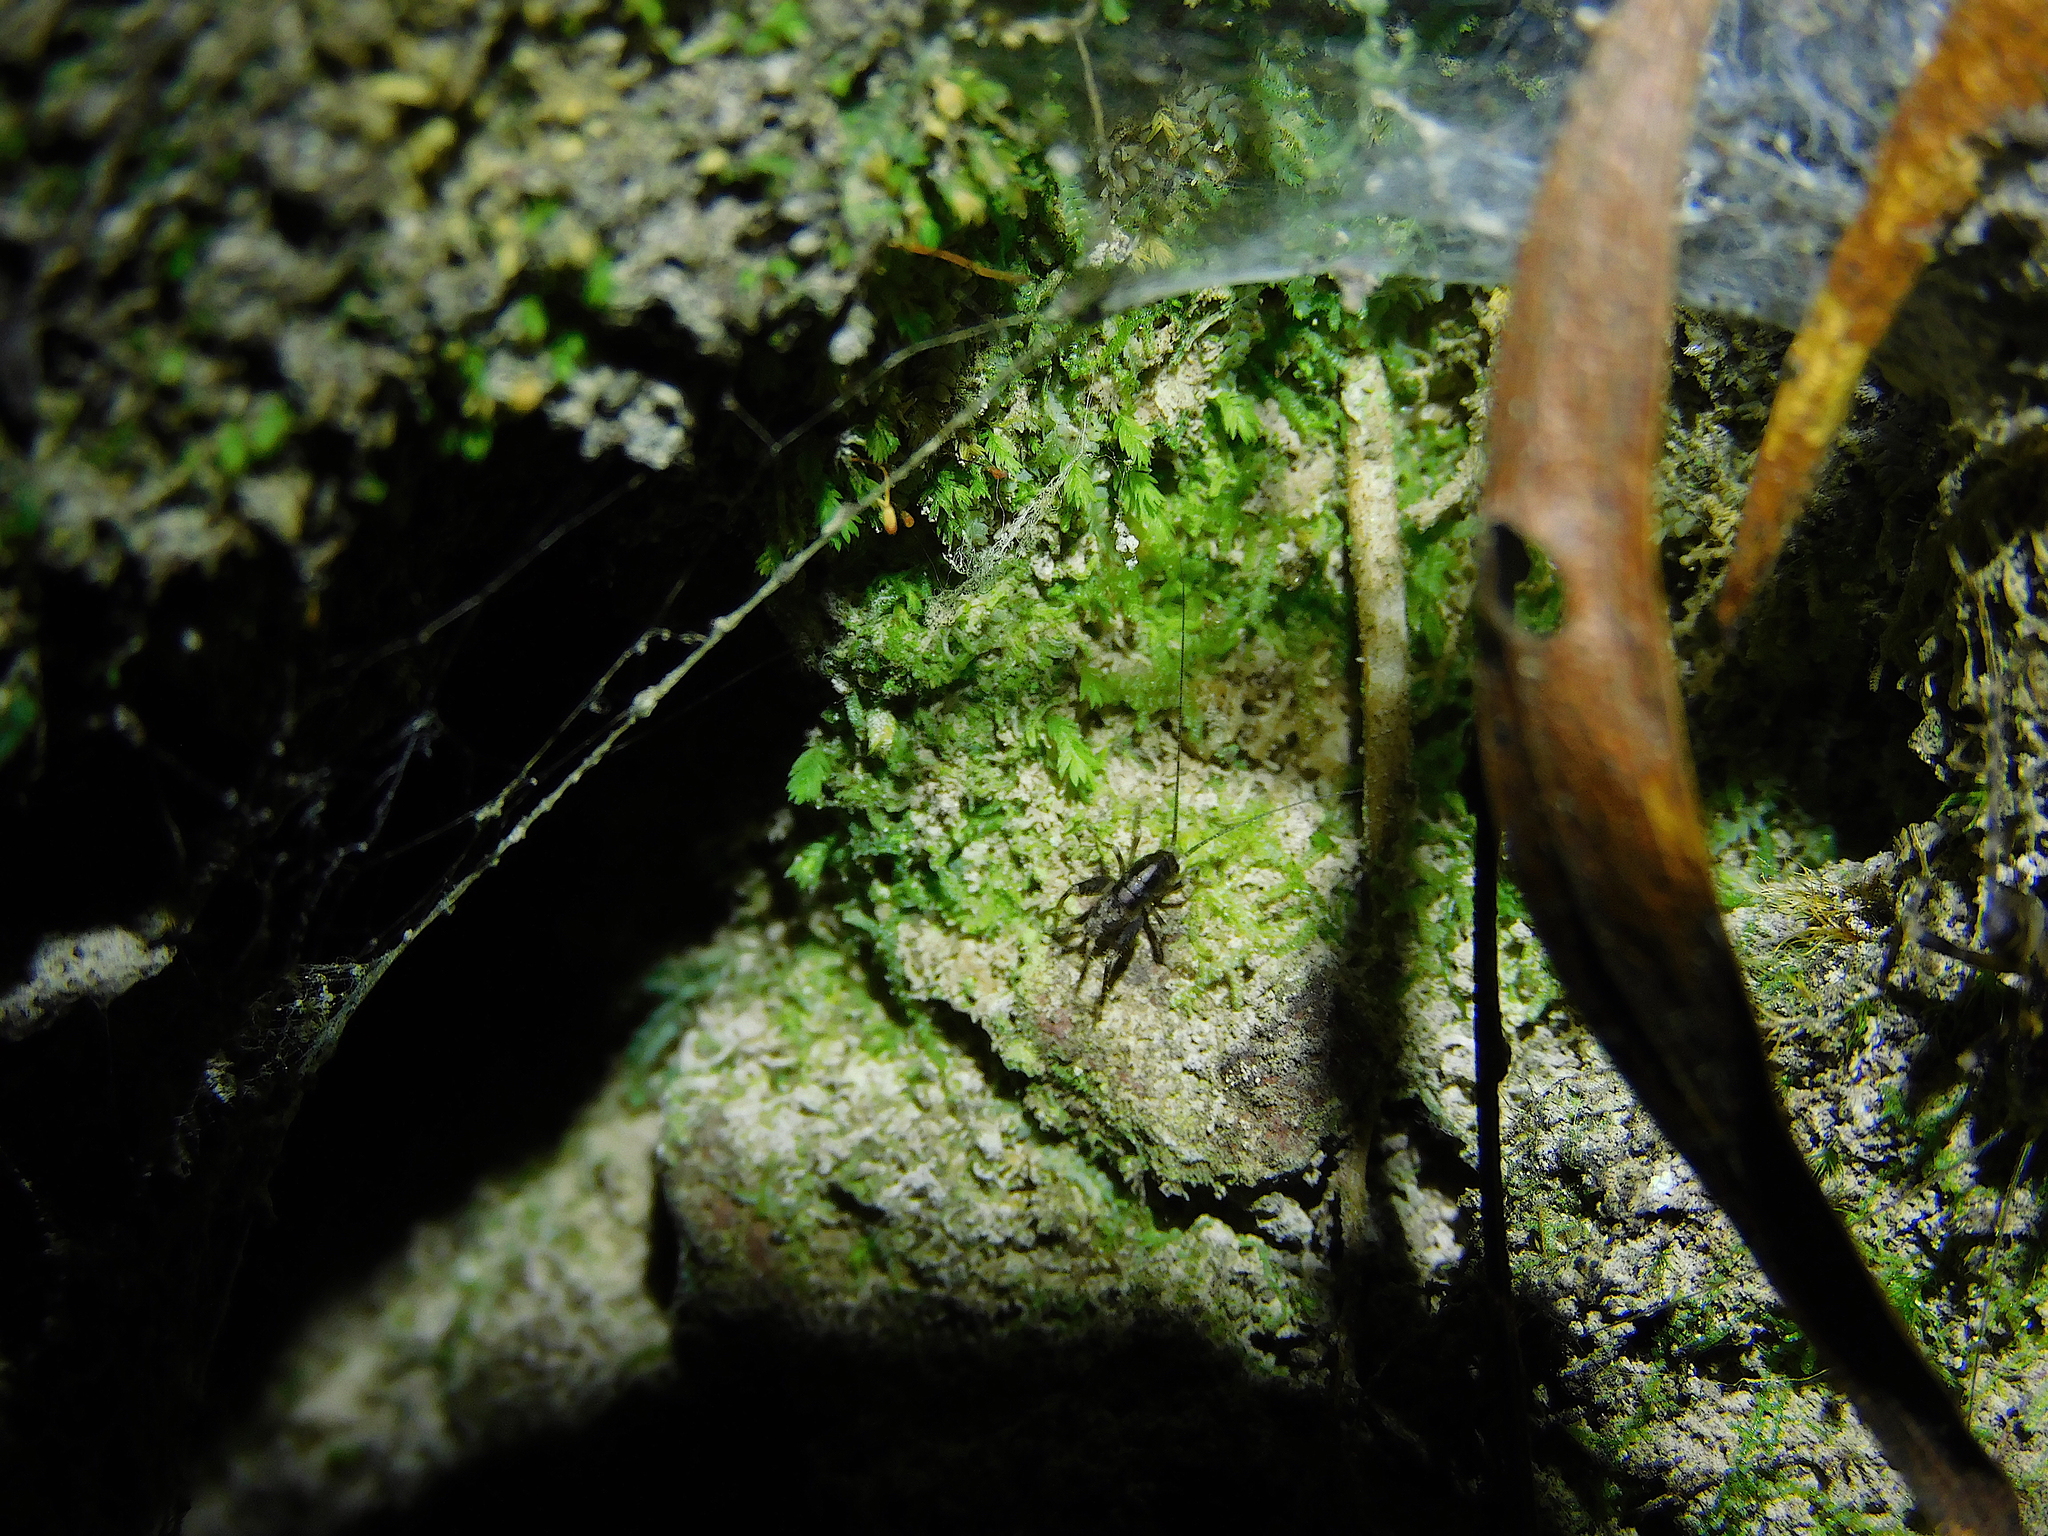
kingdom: Animalia
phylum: Arthropoda
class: Insecta
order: Orthoptera
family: Rhaphidophoridae
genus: Parvotettix
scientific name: Parvotettix domesticus
